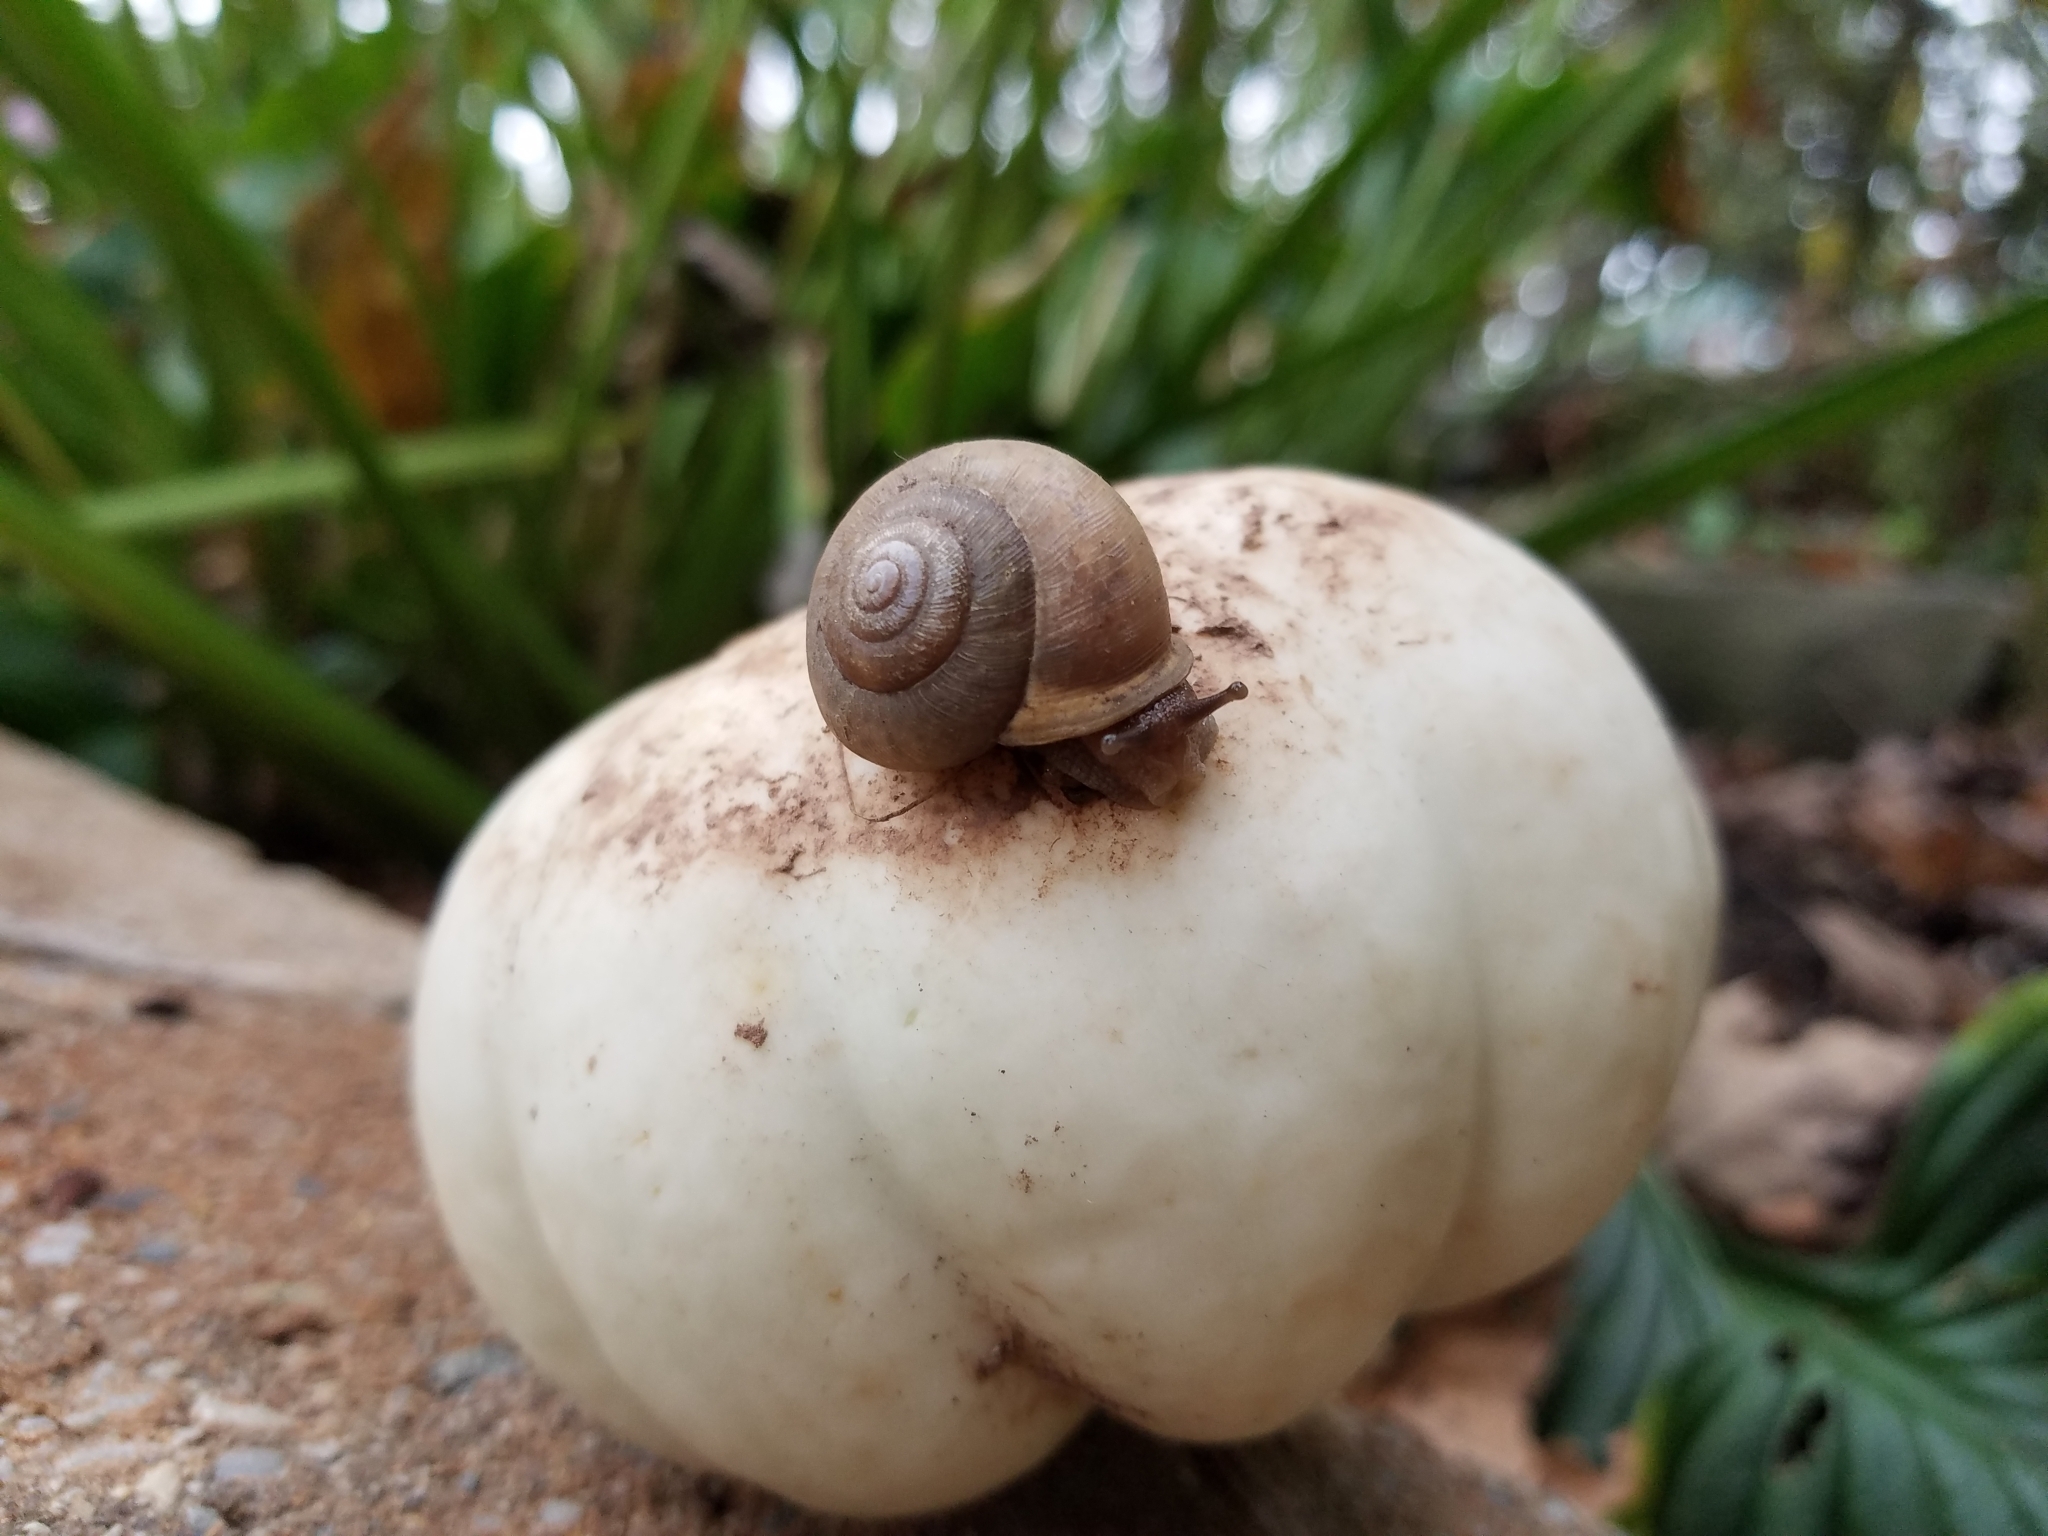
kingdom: Animalia
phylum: Mollusca
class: Gastropoda
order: Stylommatophora
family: Polygyridae
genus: Mesodon
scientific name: Mesodon thyroidus
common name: White-lip globe
